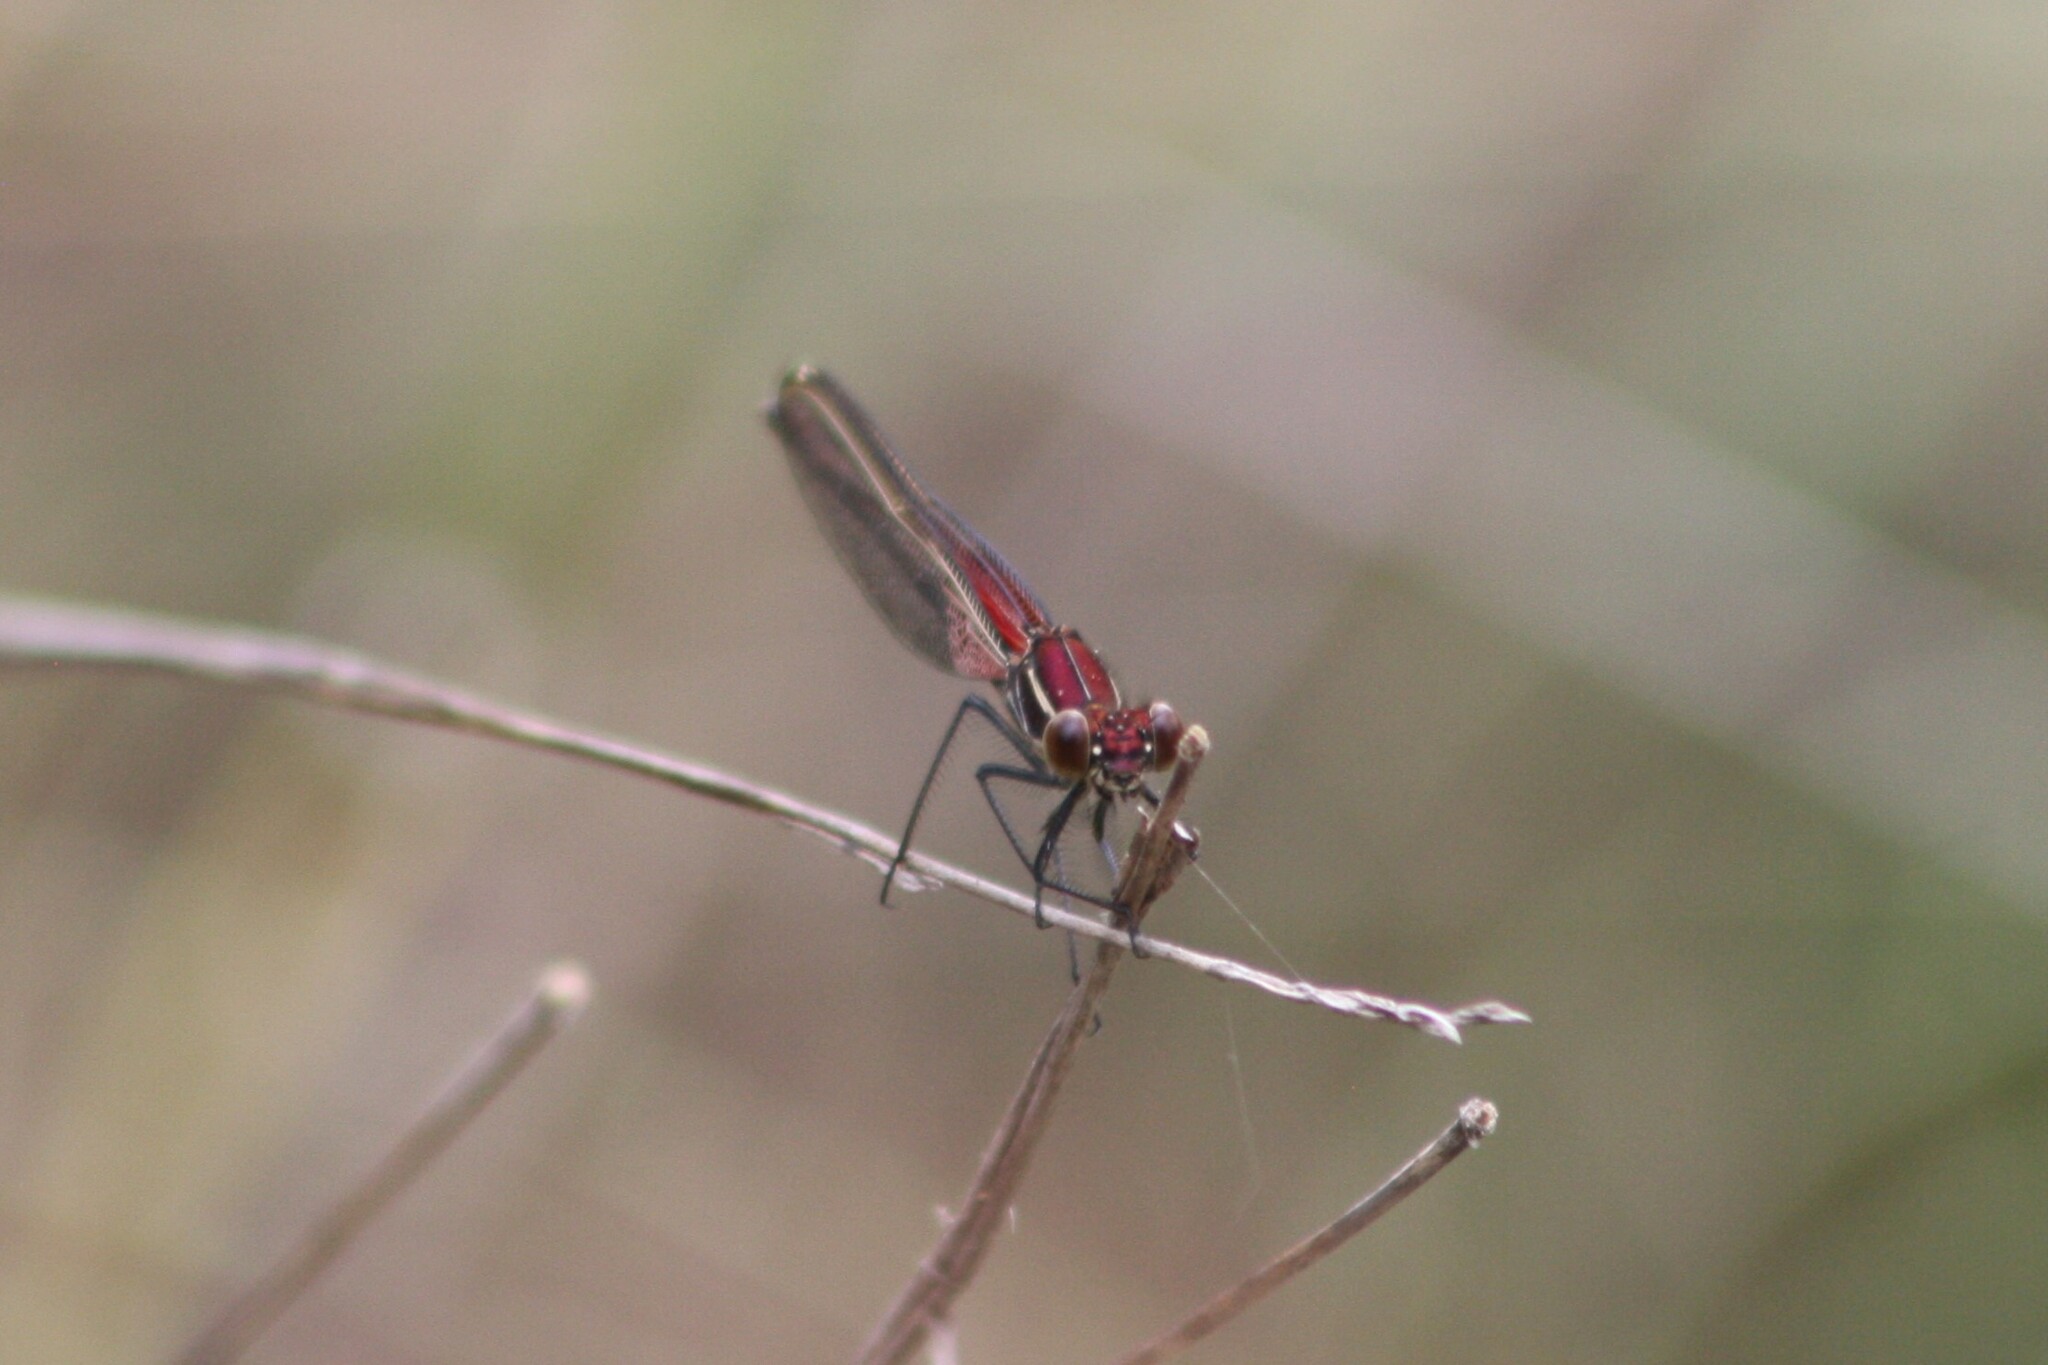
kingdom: Animalia
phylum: Arthropoda
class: Insecta
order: Odonata
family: Calopterygidae
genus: Hetaerina
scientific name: Hetaerina americana
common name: American rubyspot
